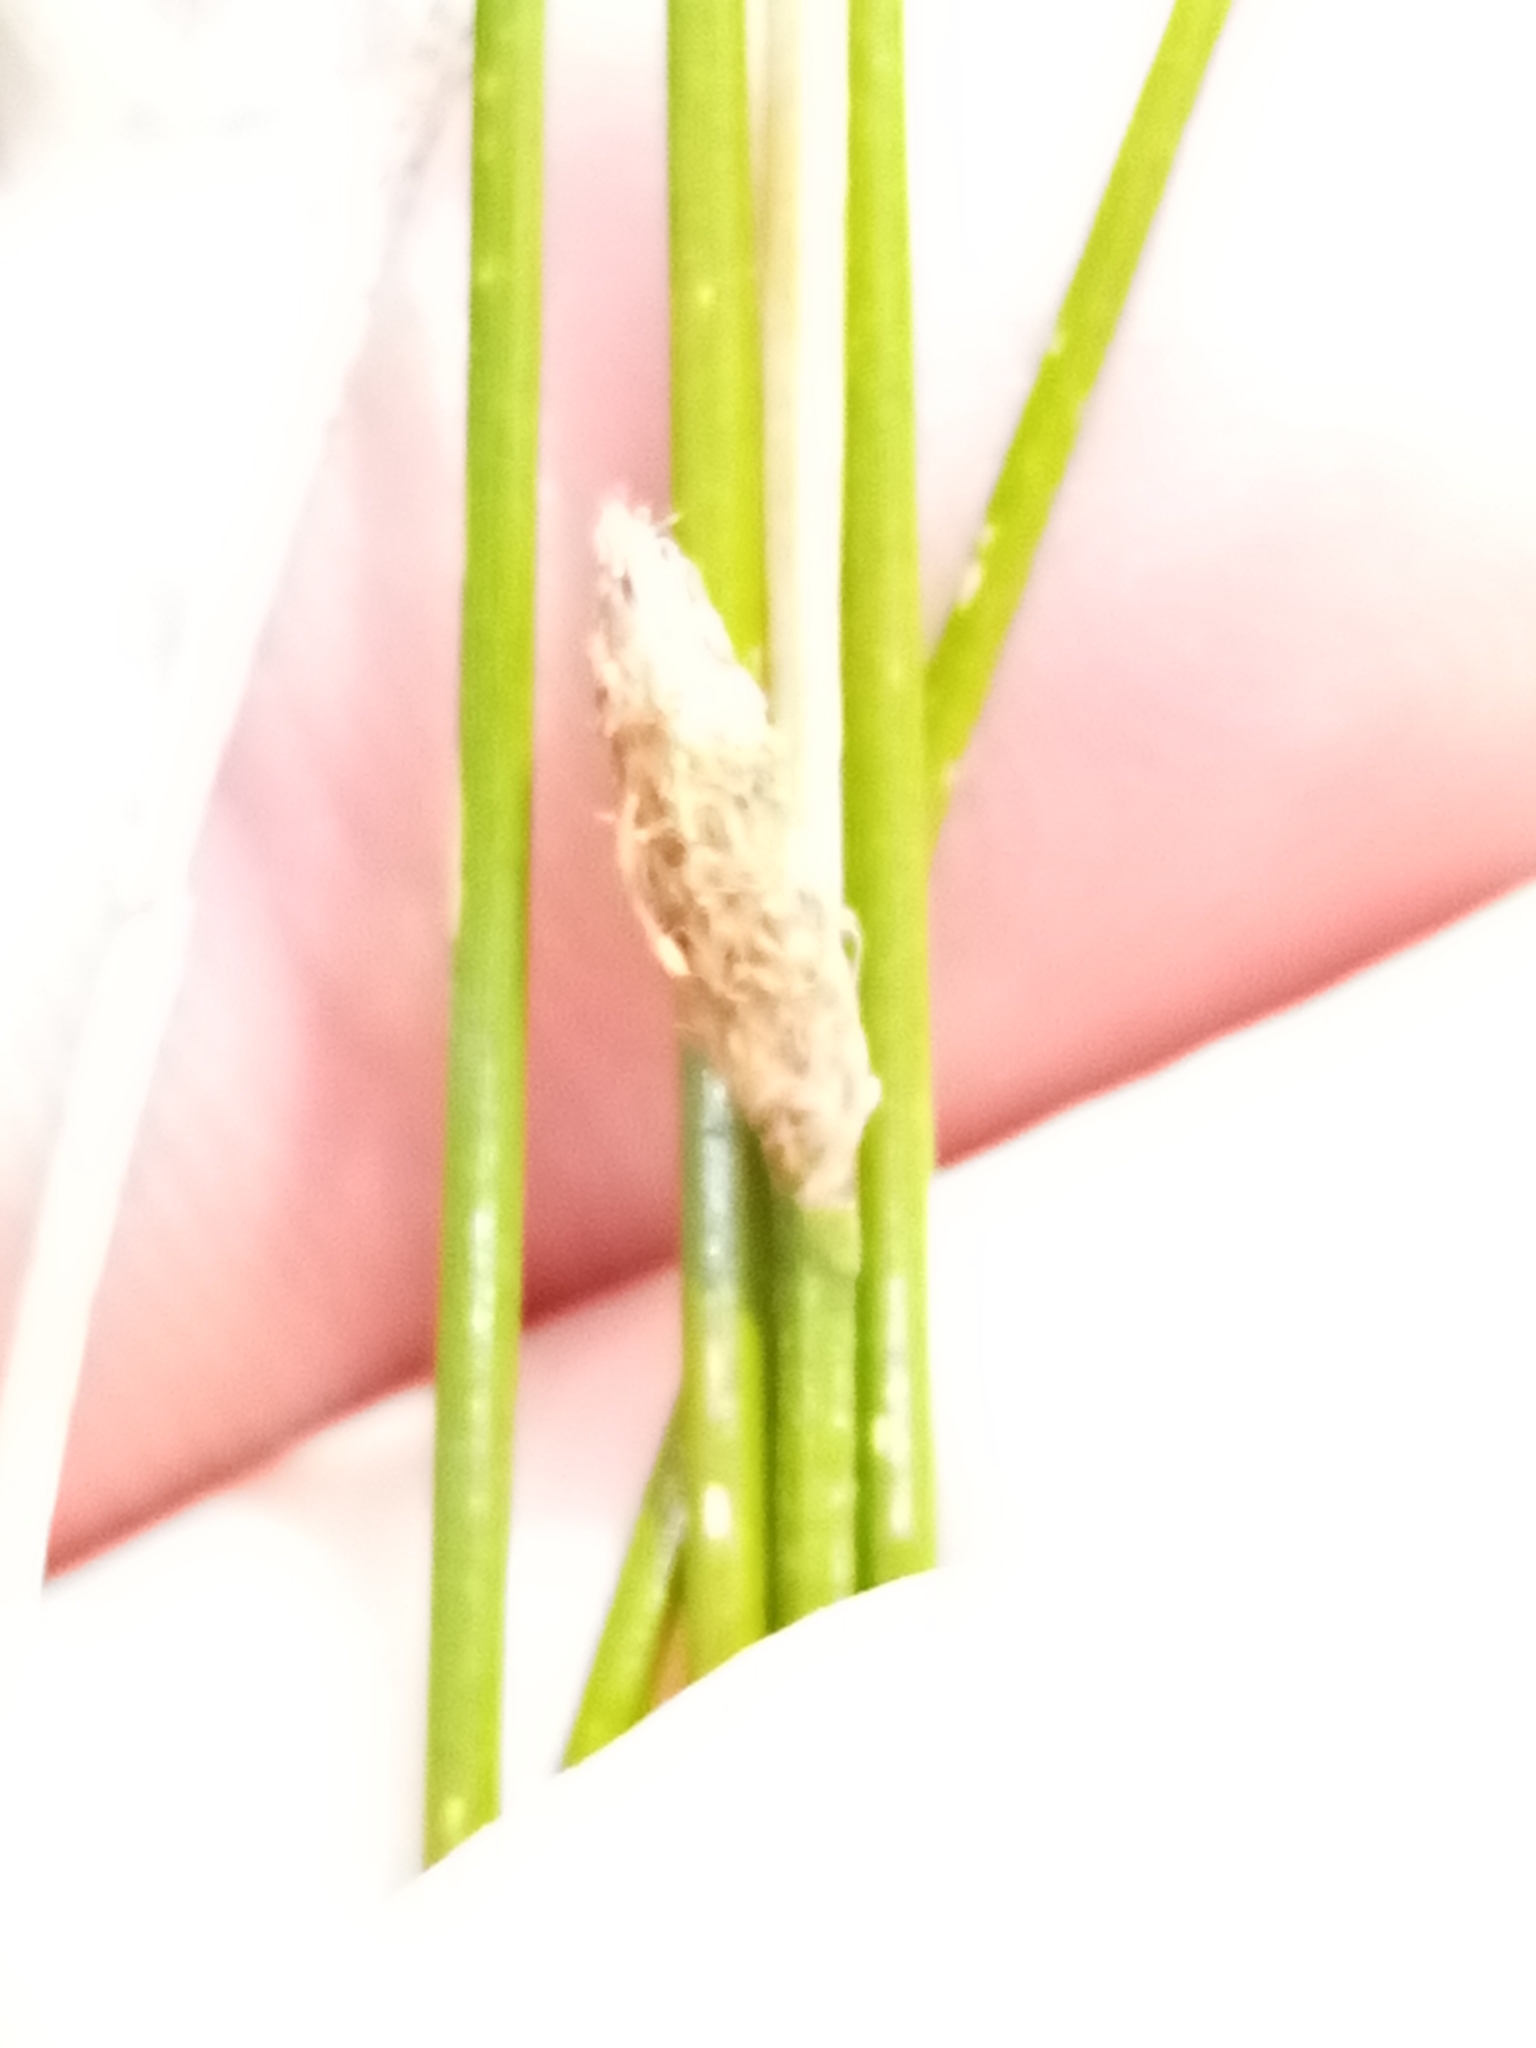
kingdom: Plantae
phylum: Tracheophyta
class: Liliopsida
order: Poales
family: Cyperaceae
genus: Eleocharis
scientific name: Eleocharis acuta
